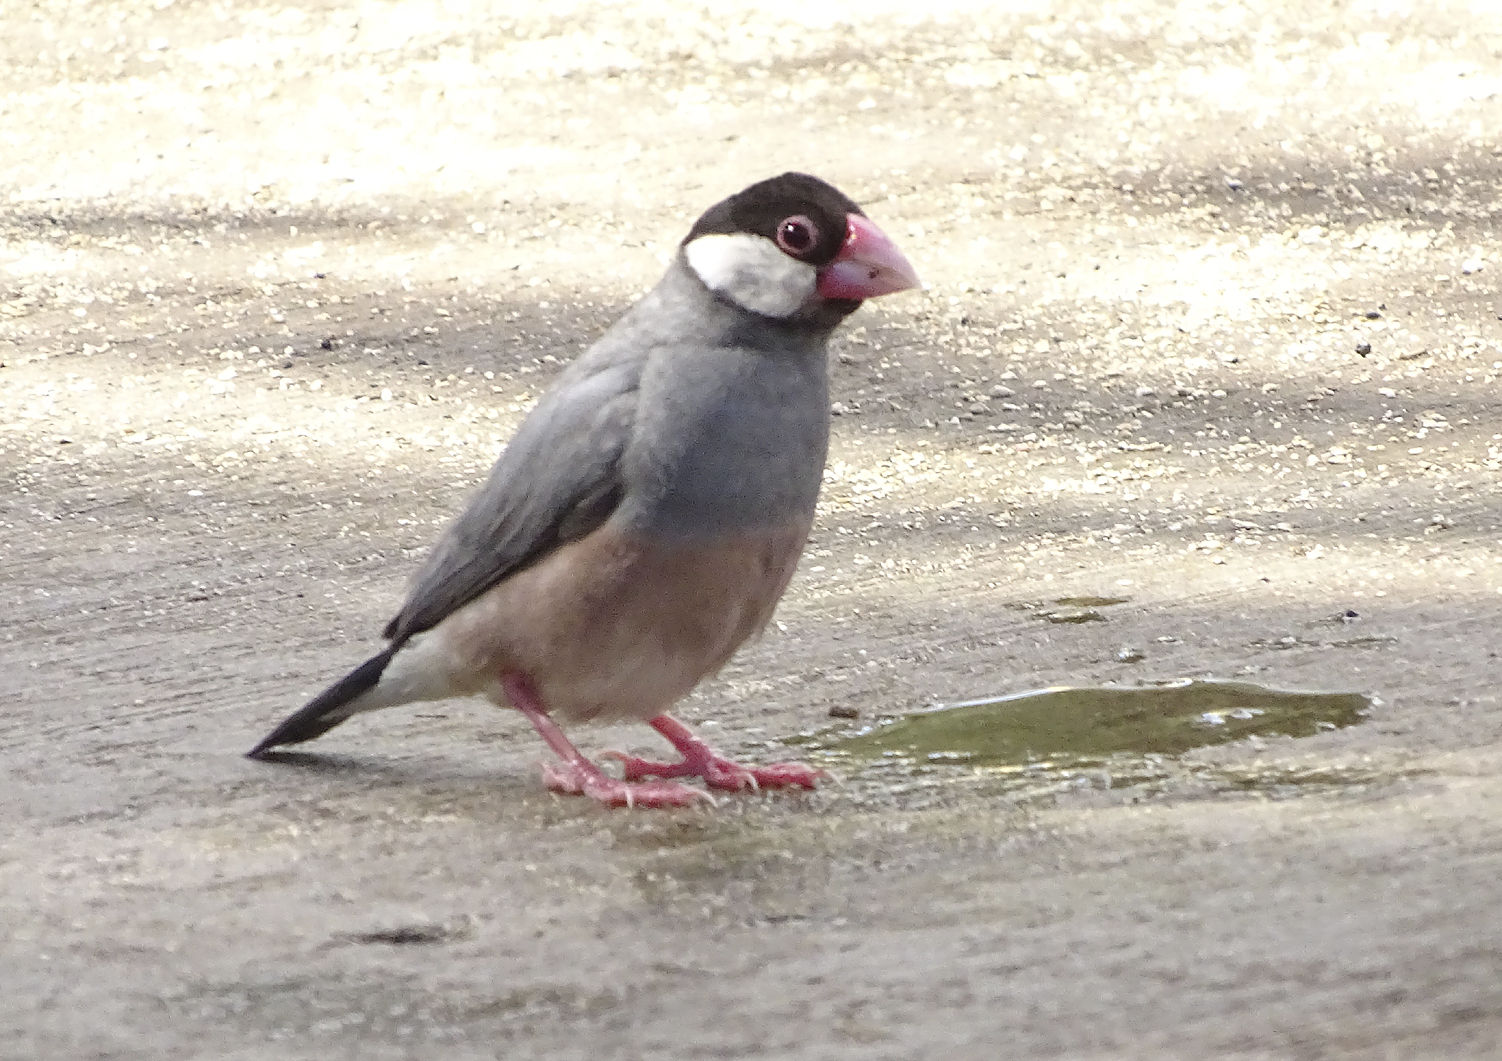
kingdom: Animalia
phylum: Chordata
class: Aves
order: Passeriformes
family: Estrildidae
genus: Lonchura
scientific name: Lonchura oryzivora
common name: Java sparrow
